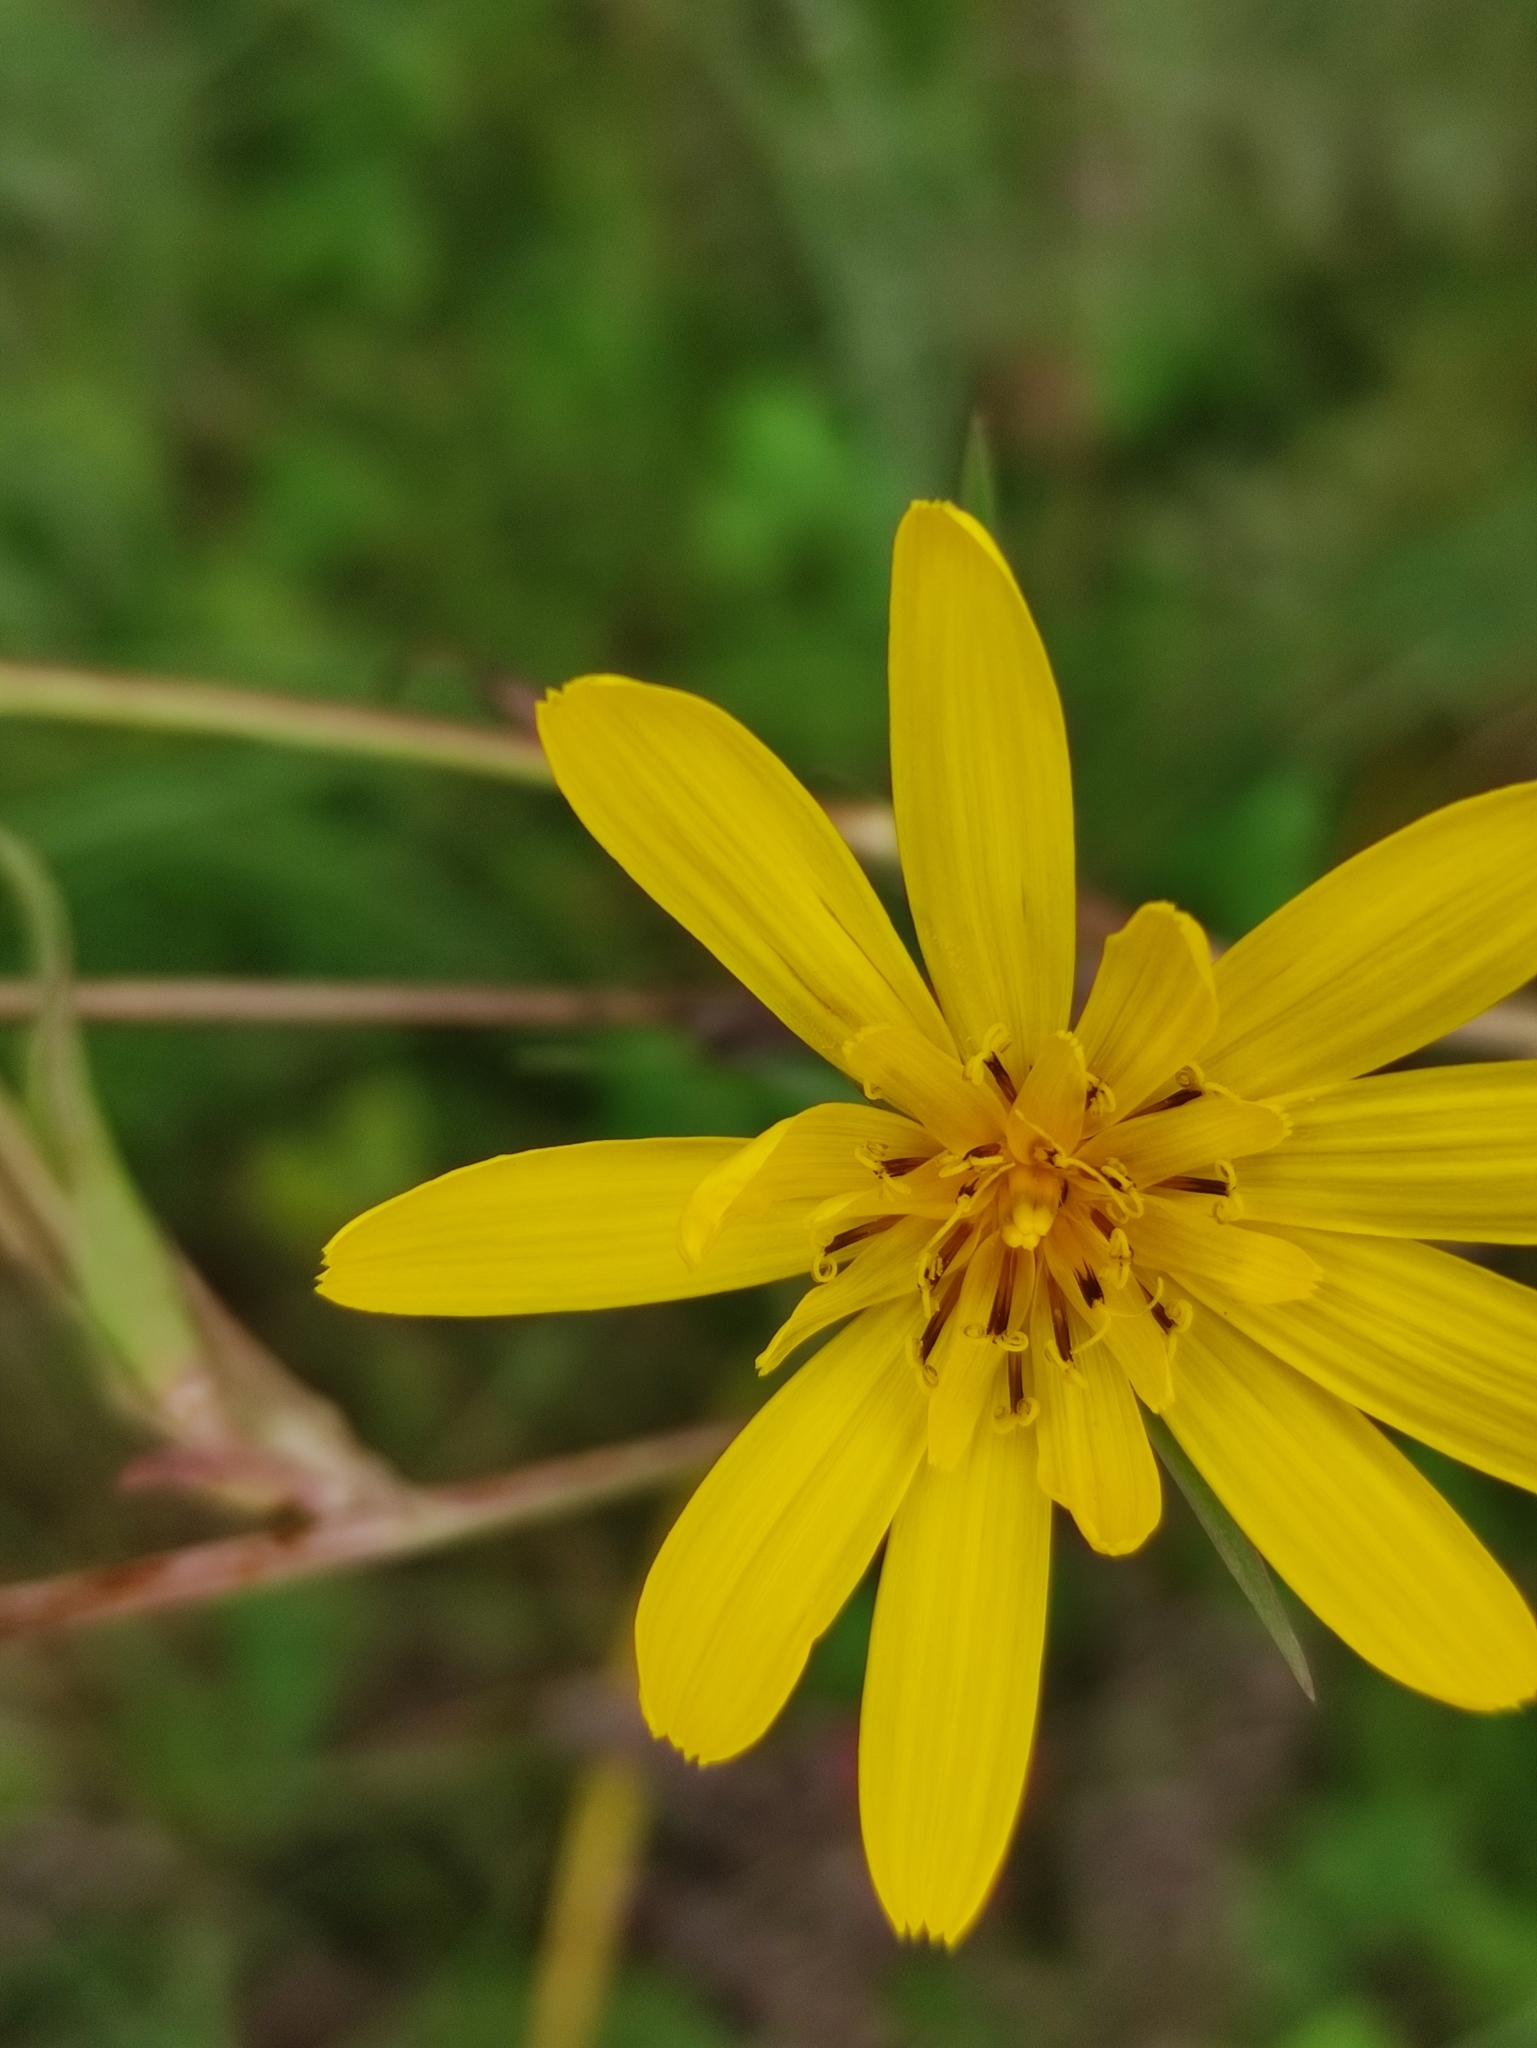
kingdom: Plantae
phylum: Tracheophyta
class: Magnoliopsida
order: Asterales
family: Asteraceae
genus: Tragopogon
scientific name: Tragopogon orientalis
